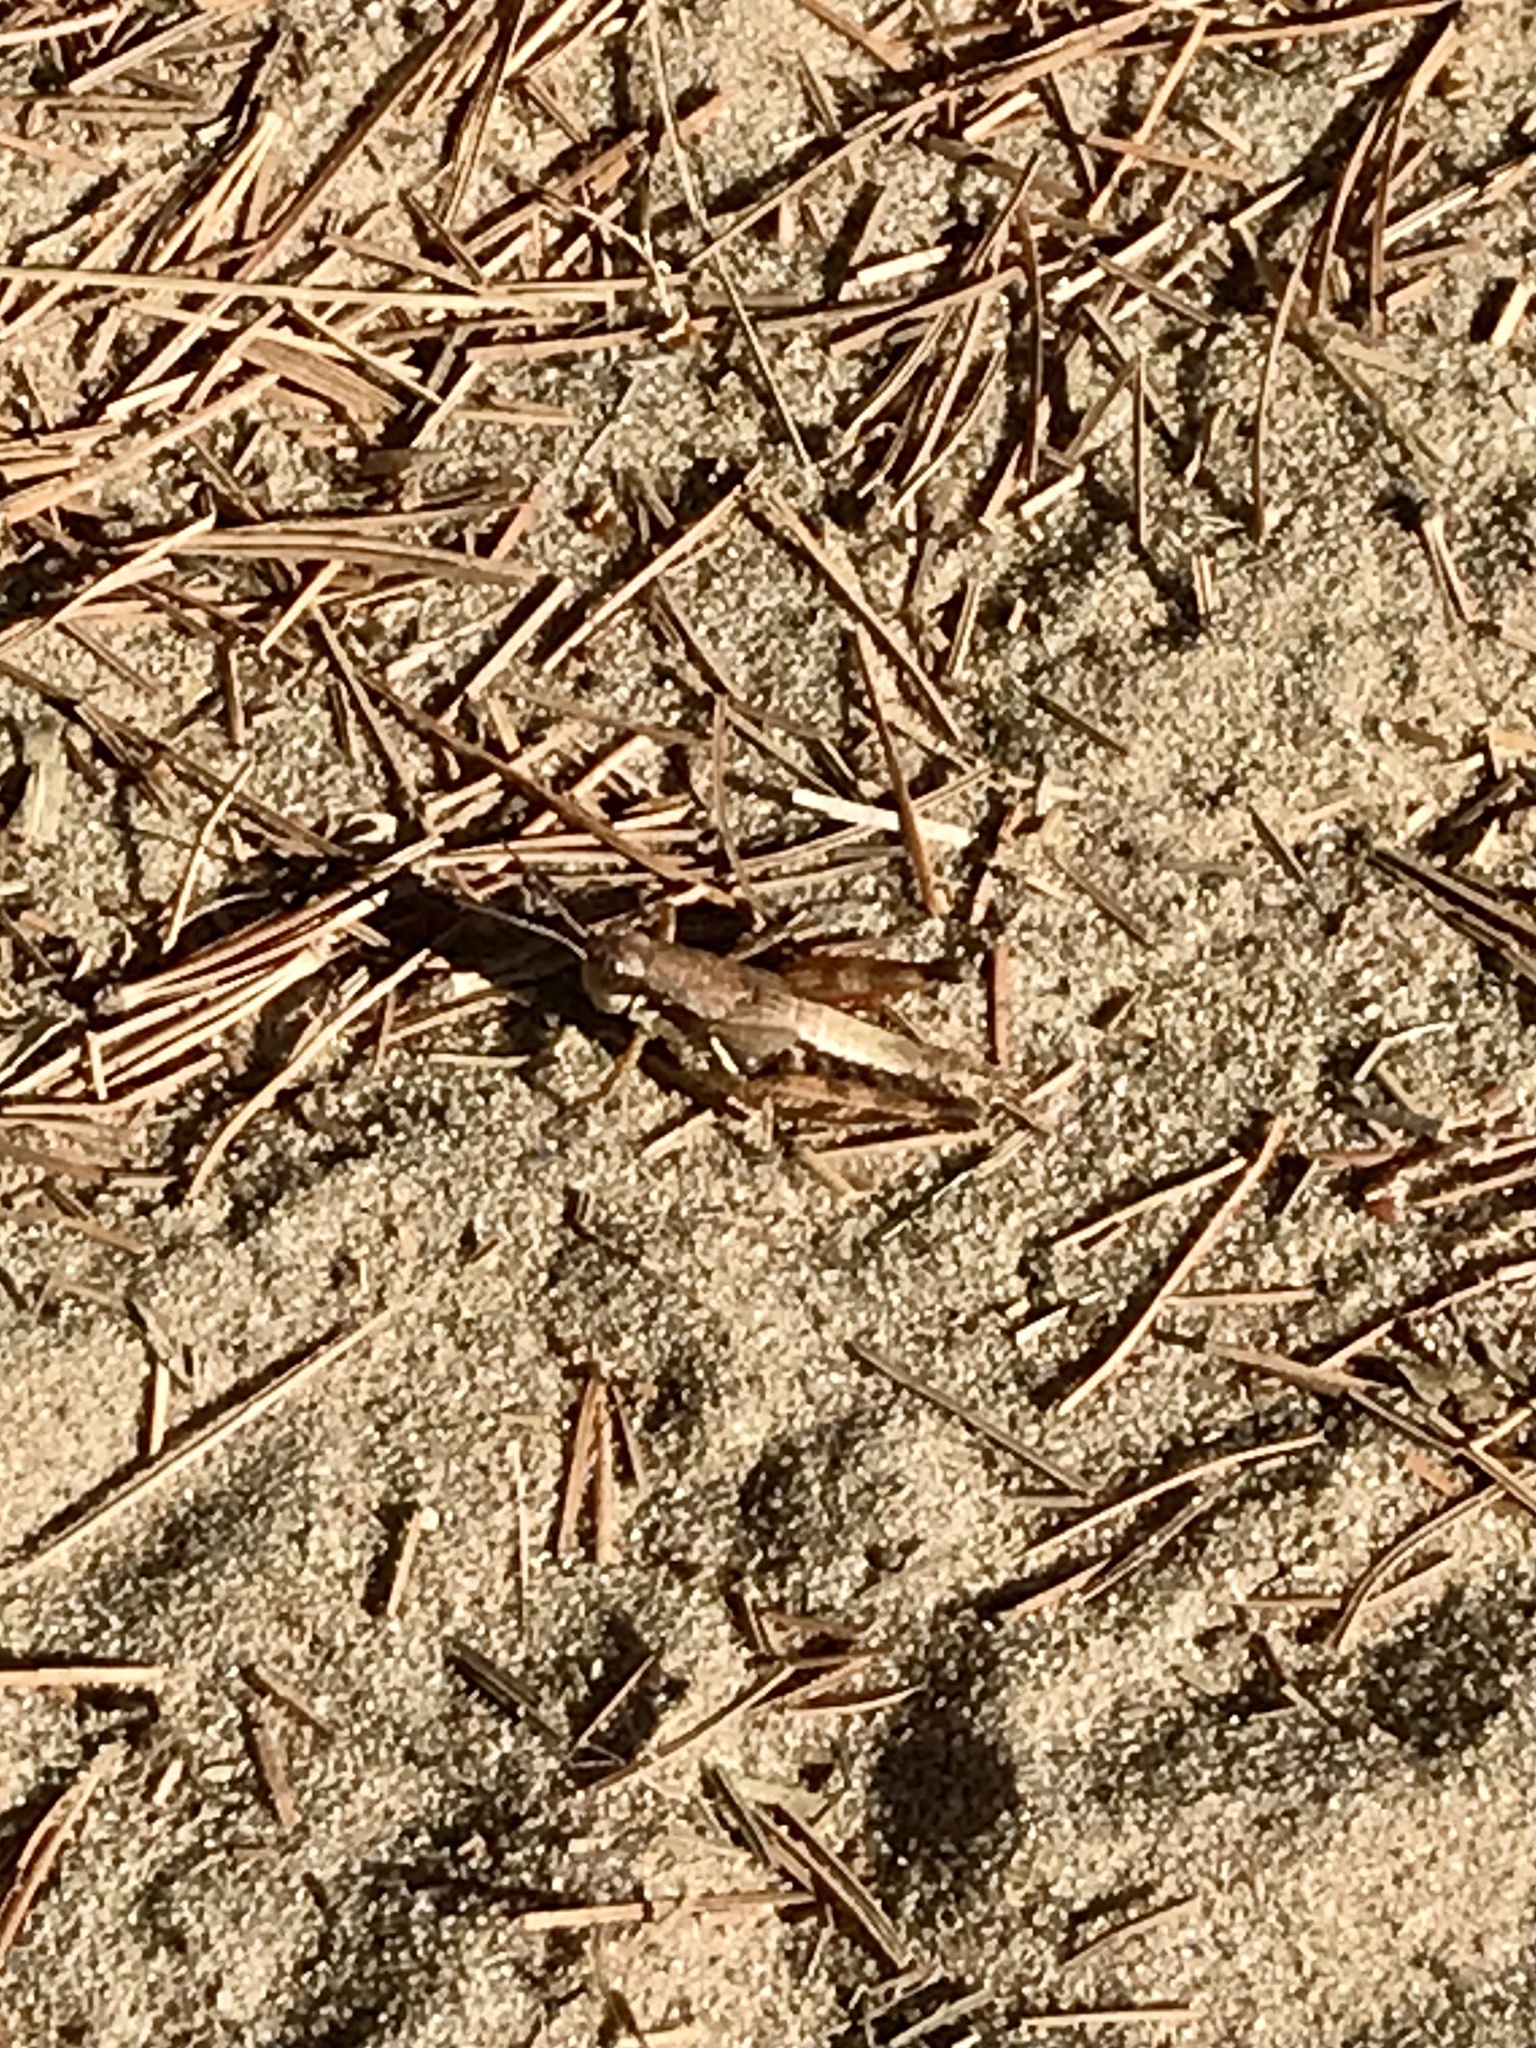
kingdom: Animalia
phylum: Arthropoda
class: Insecta
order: Orthoptera
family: Acrididae
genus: Melanoplus
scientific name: Melanoplus islandicus
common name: Island locust
